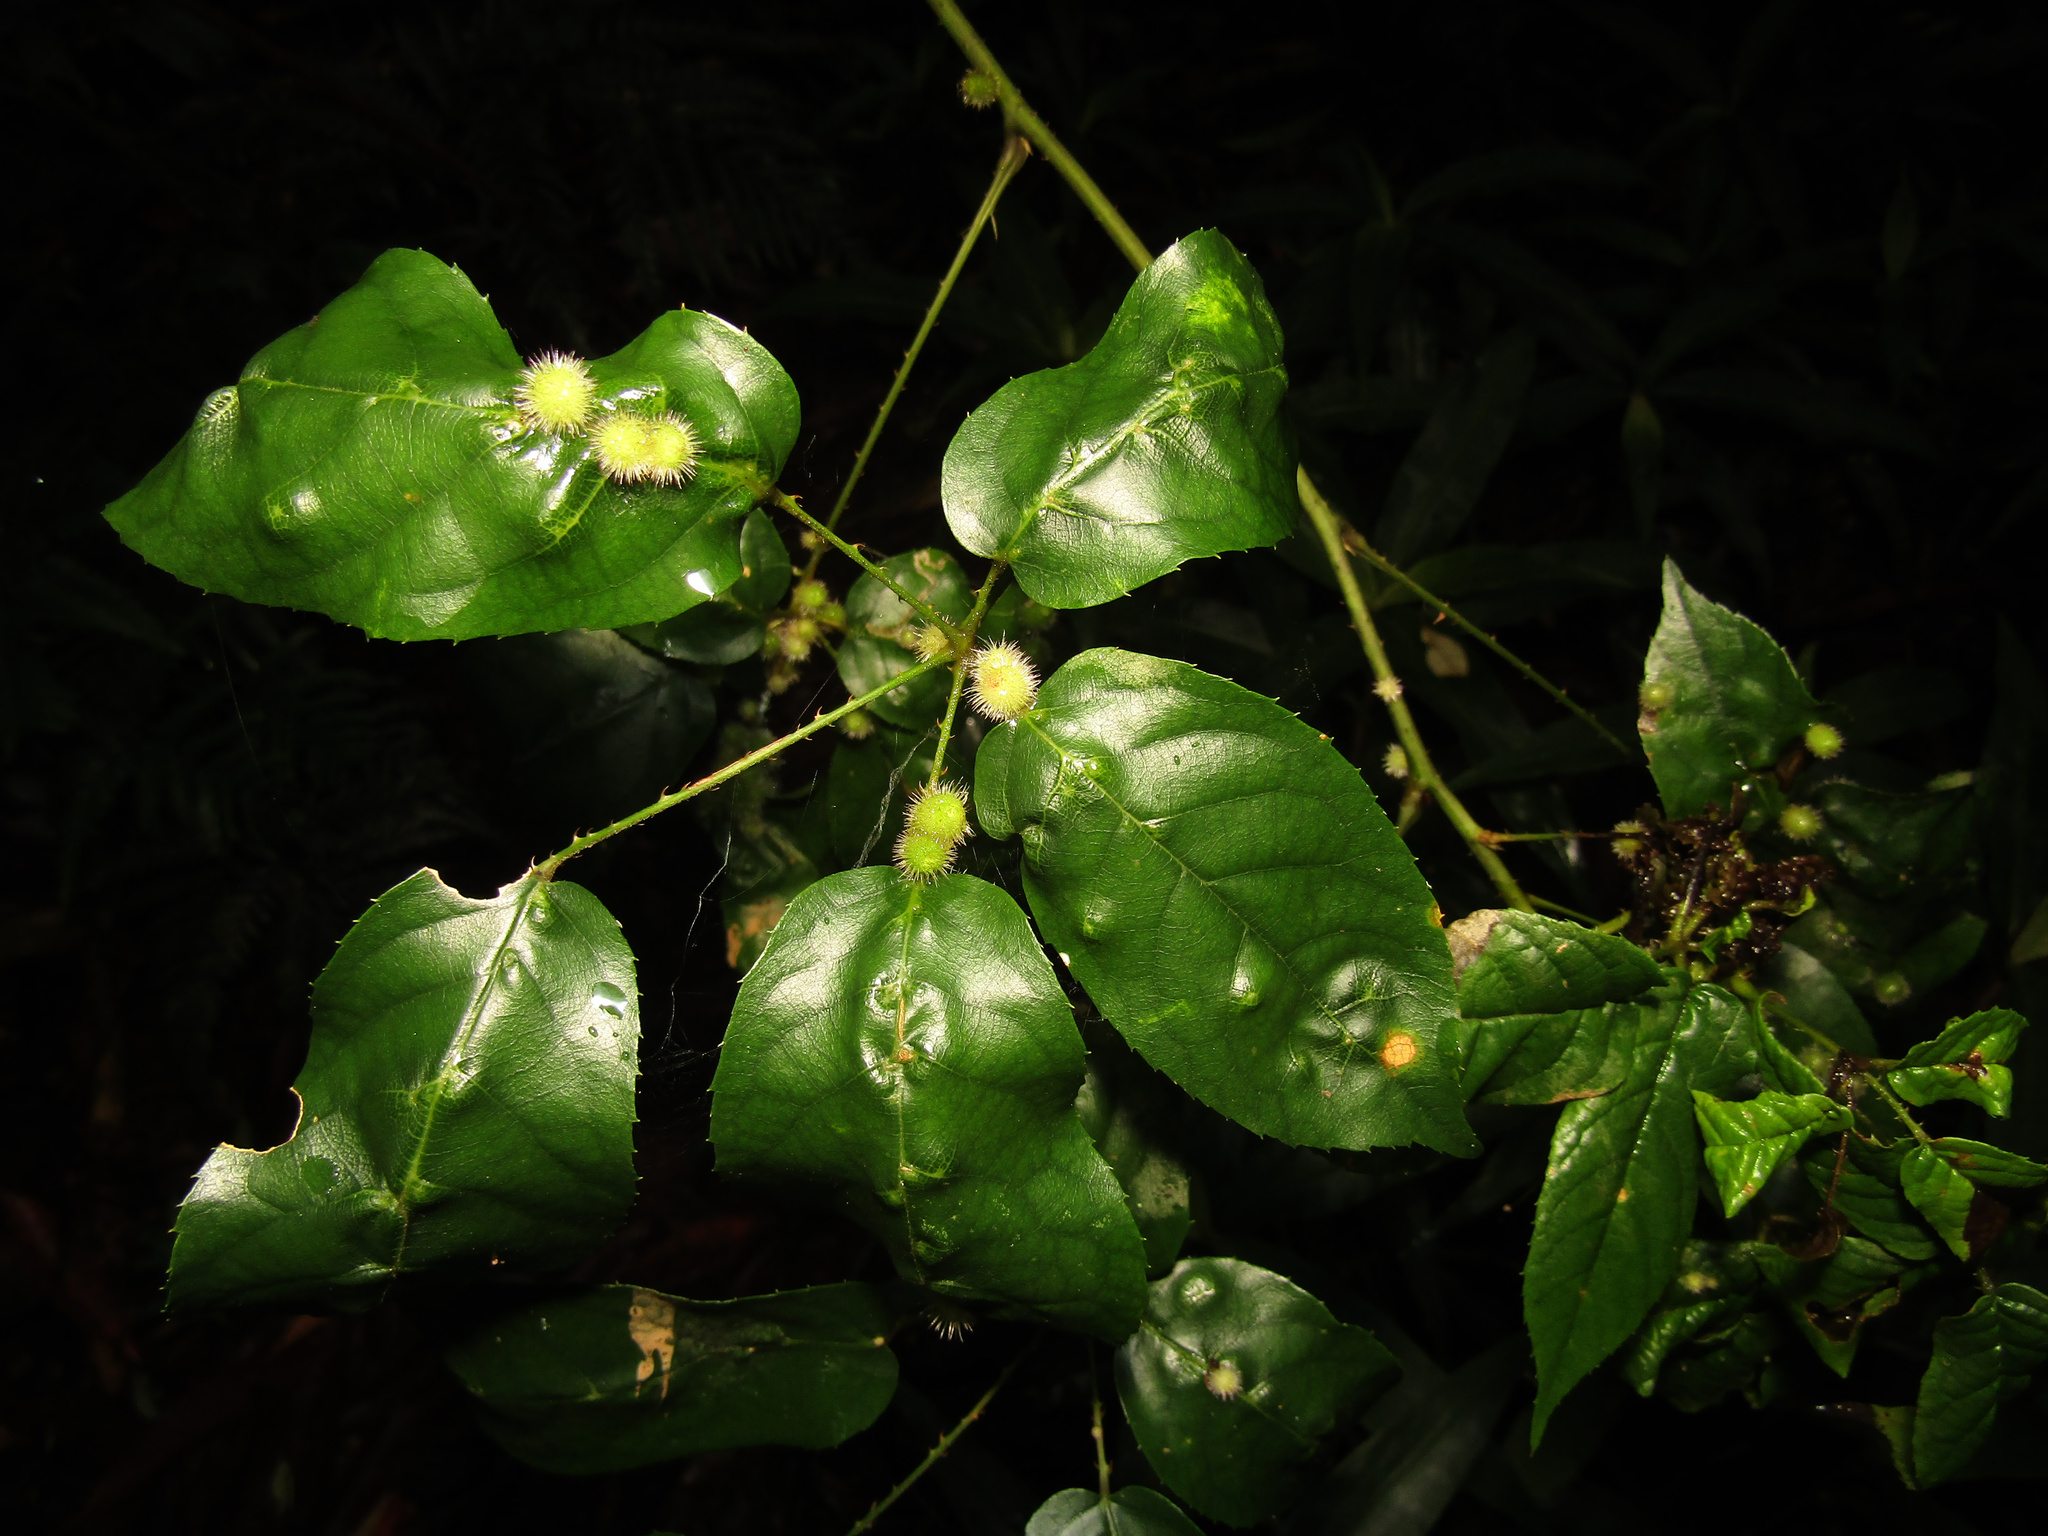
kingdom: Plantae
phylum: Tracheophyta
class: Magnoliopsida
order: Rosales
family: Rosaceae
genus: Rubus
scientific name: Rubus nebulosus
